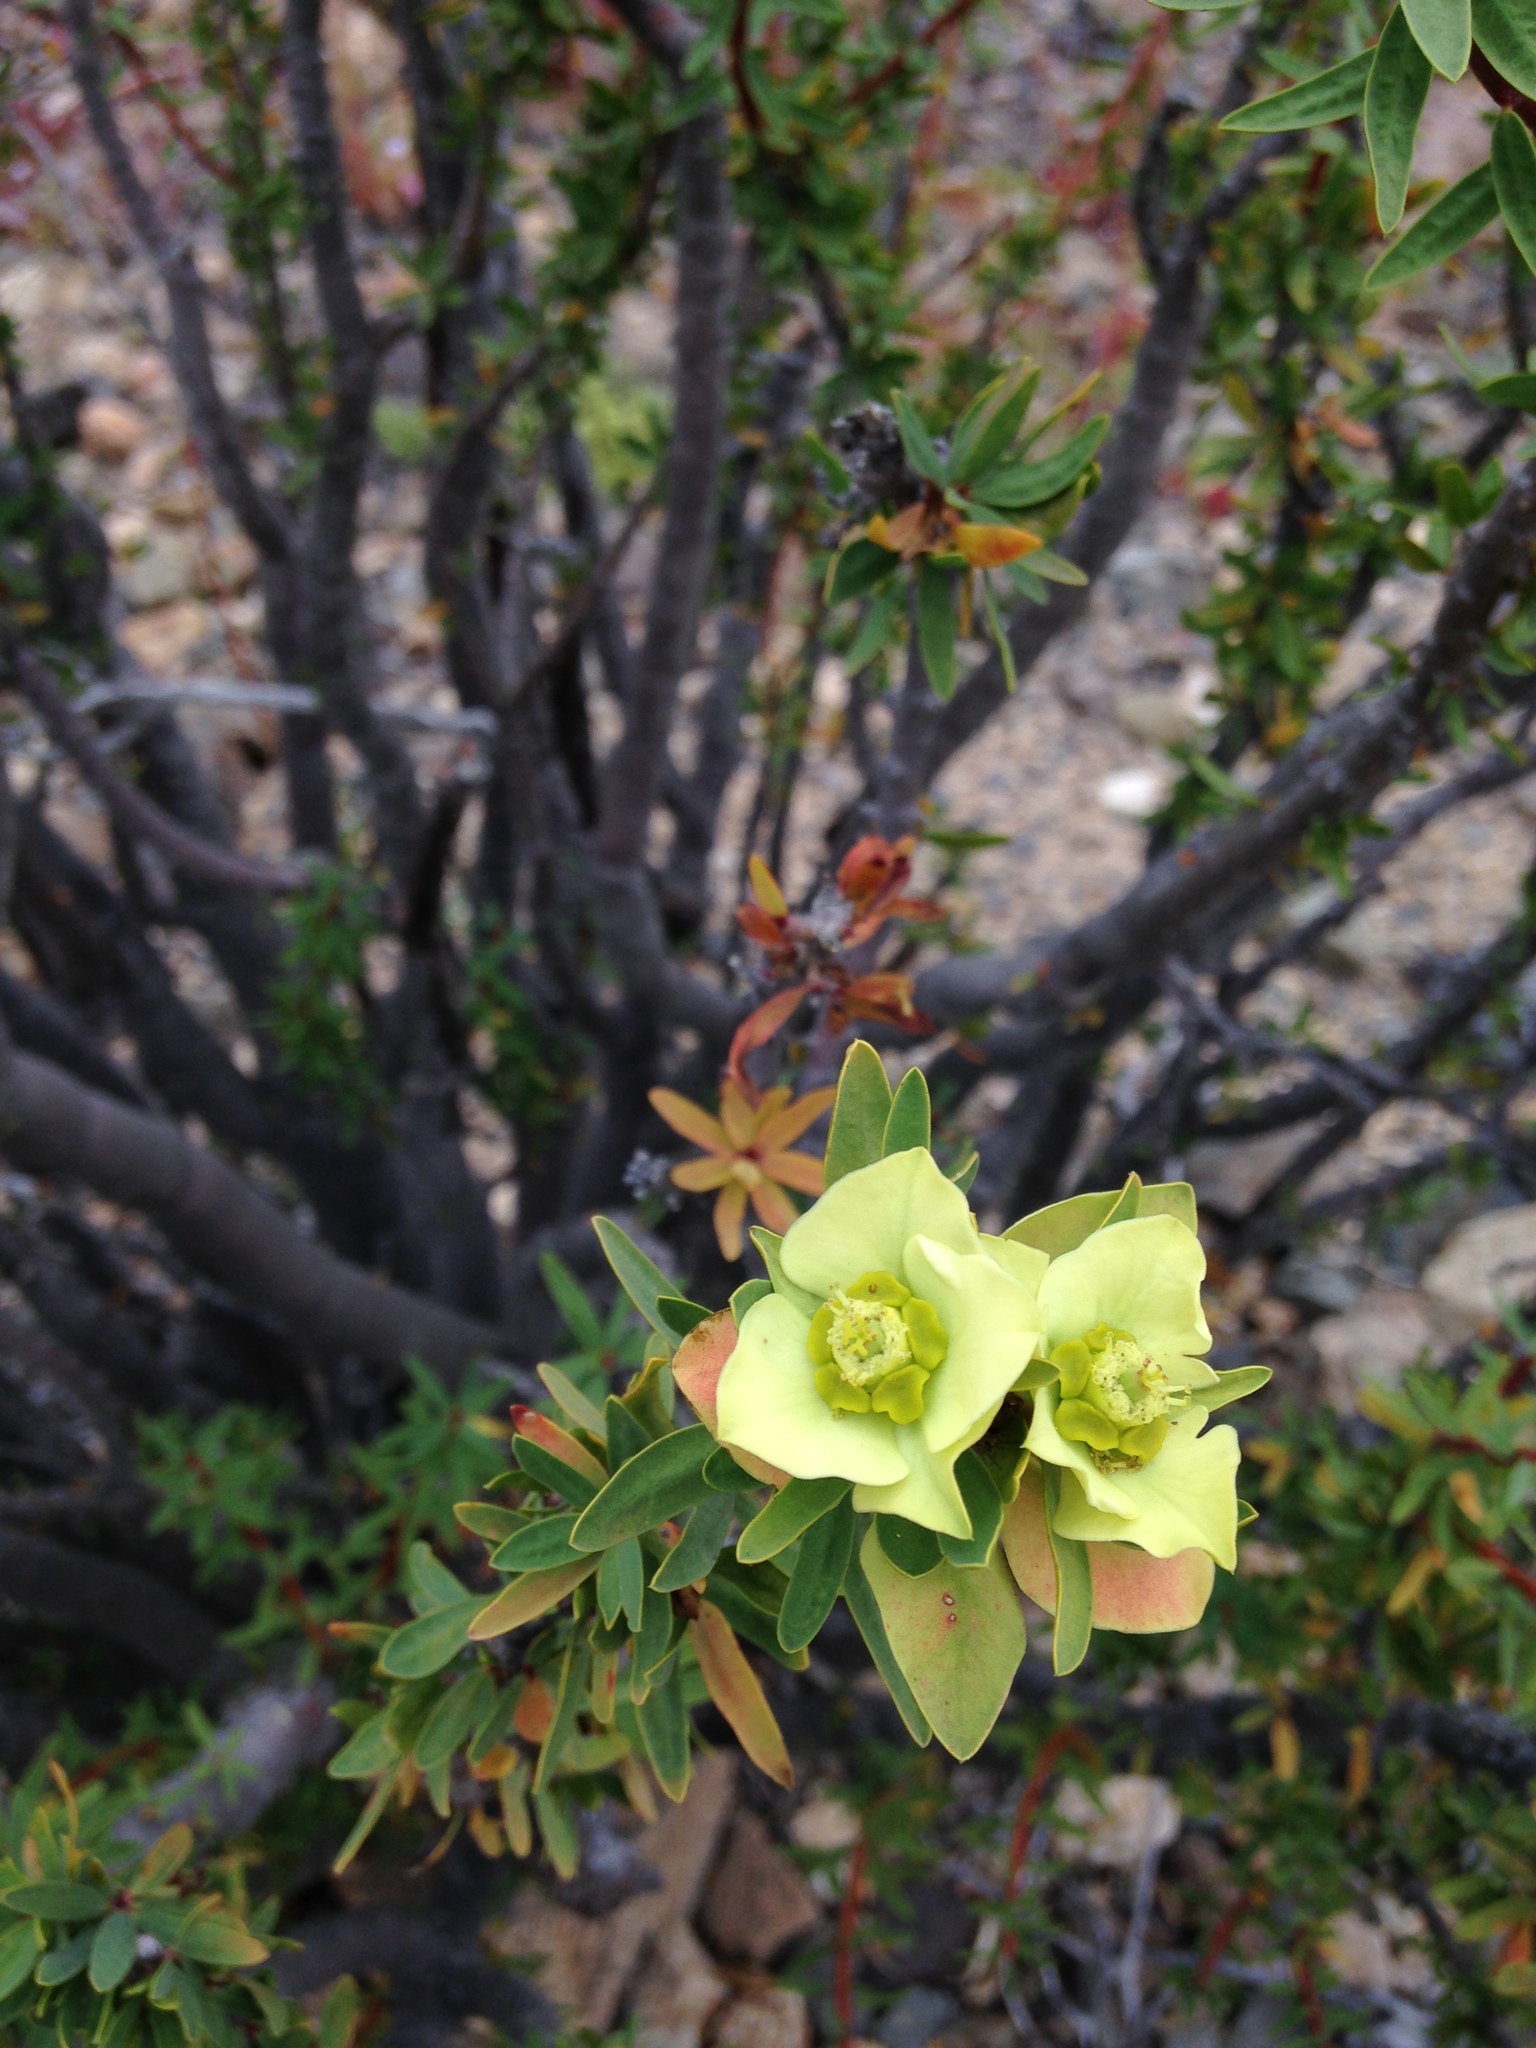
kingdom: Plantae
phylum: Tracheophyta
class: Magnoliopsida
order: Malpighiales
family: Euphorbiaceae
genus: Euphorbia
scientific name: Euphorbia lactiflua
